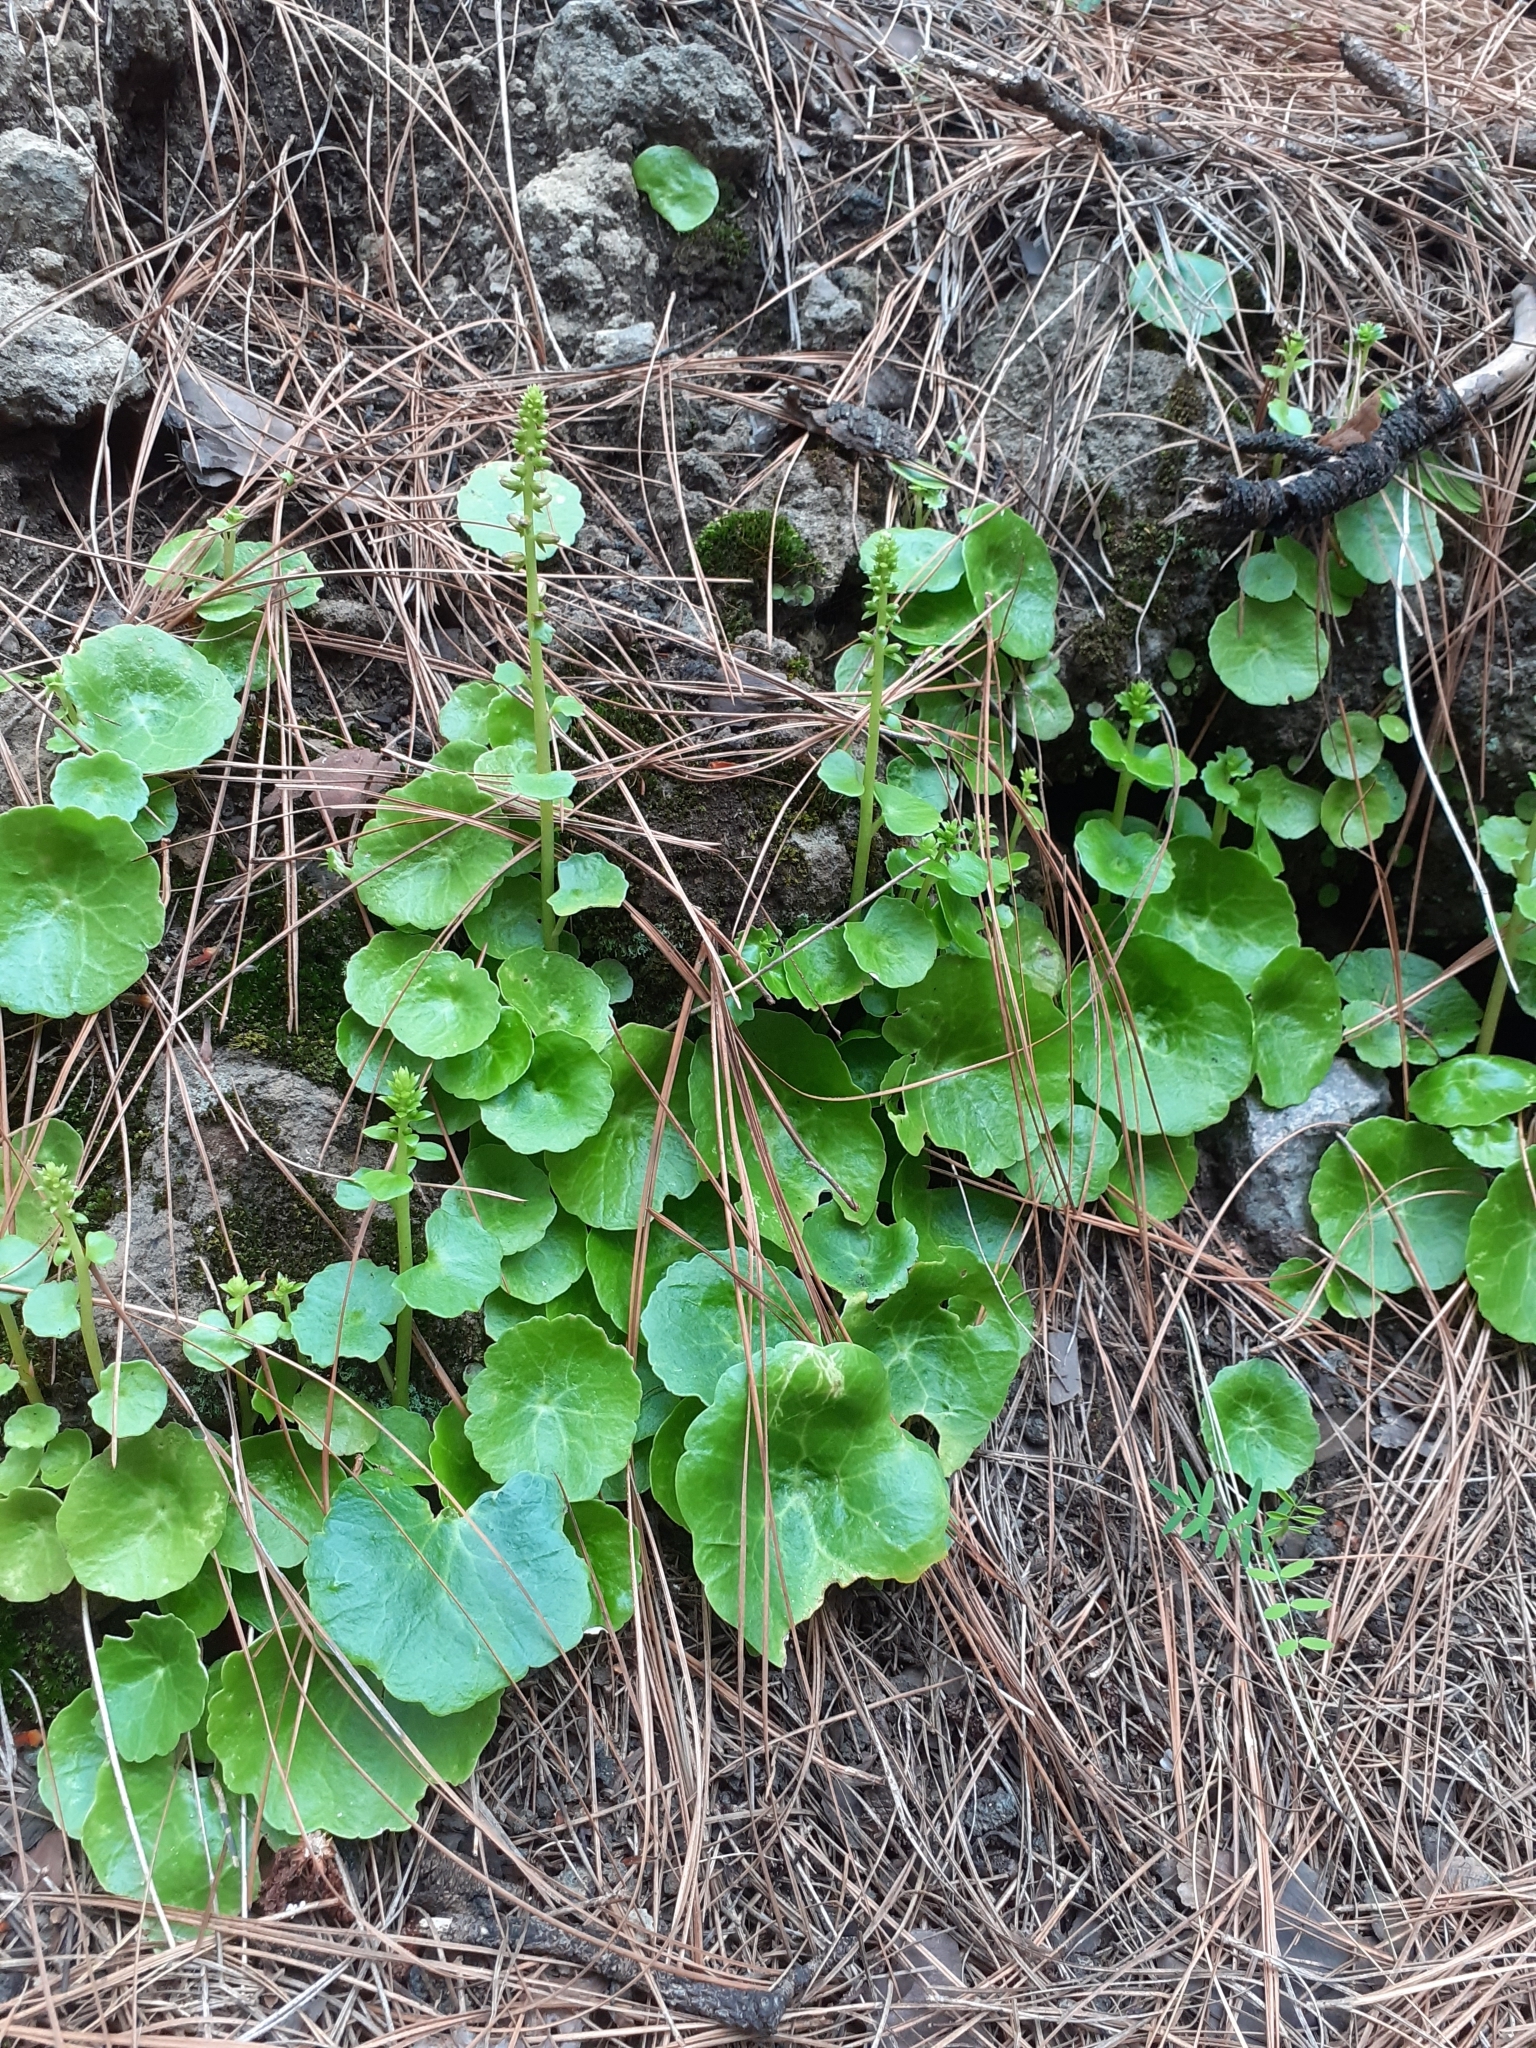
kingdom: Plantae
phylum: Tracheophyta
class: Magnoliopsida
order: Saxifragales
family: Crassulaceae
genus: Umbilicus
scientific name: Umbilicus horizontalis
